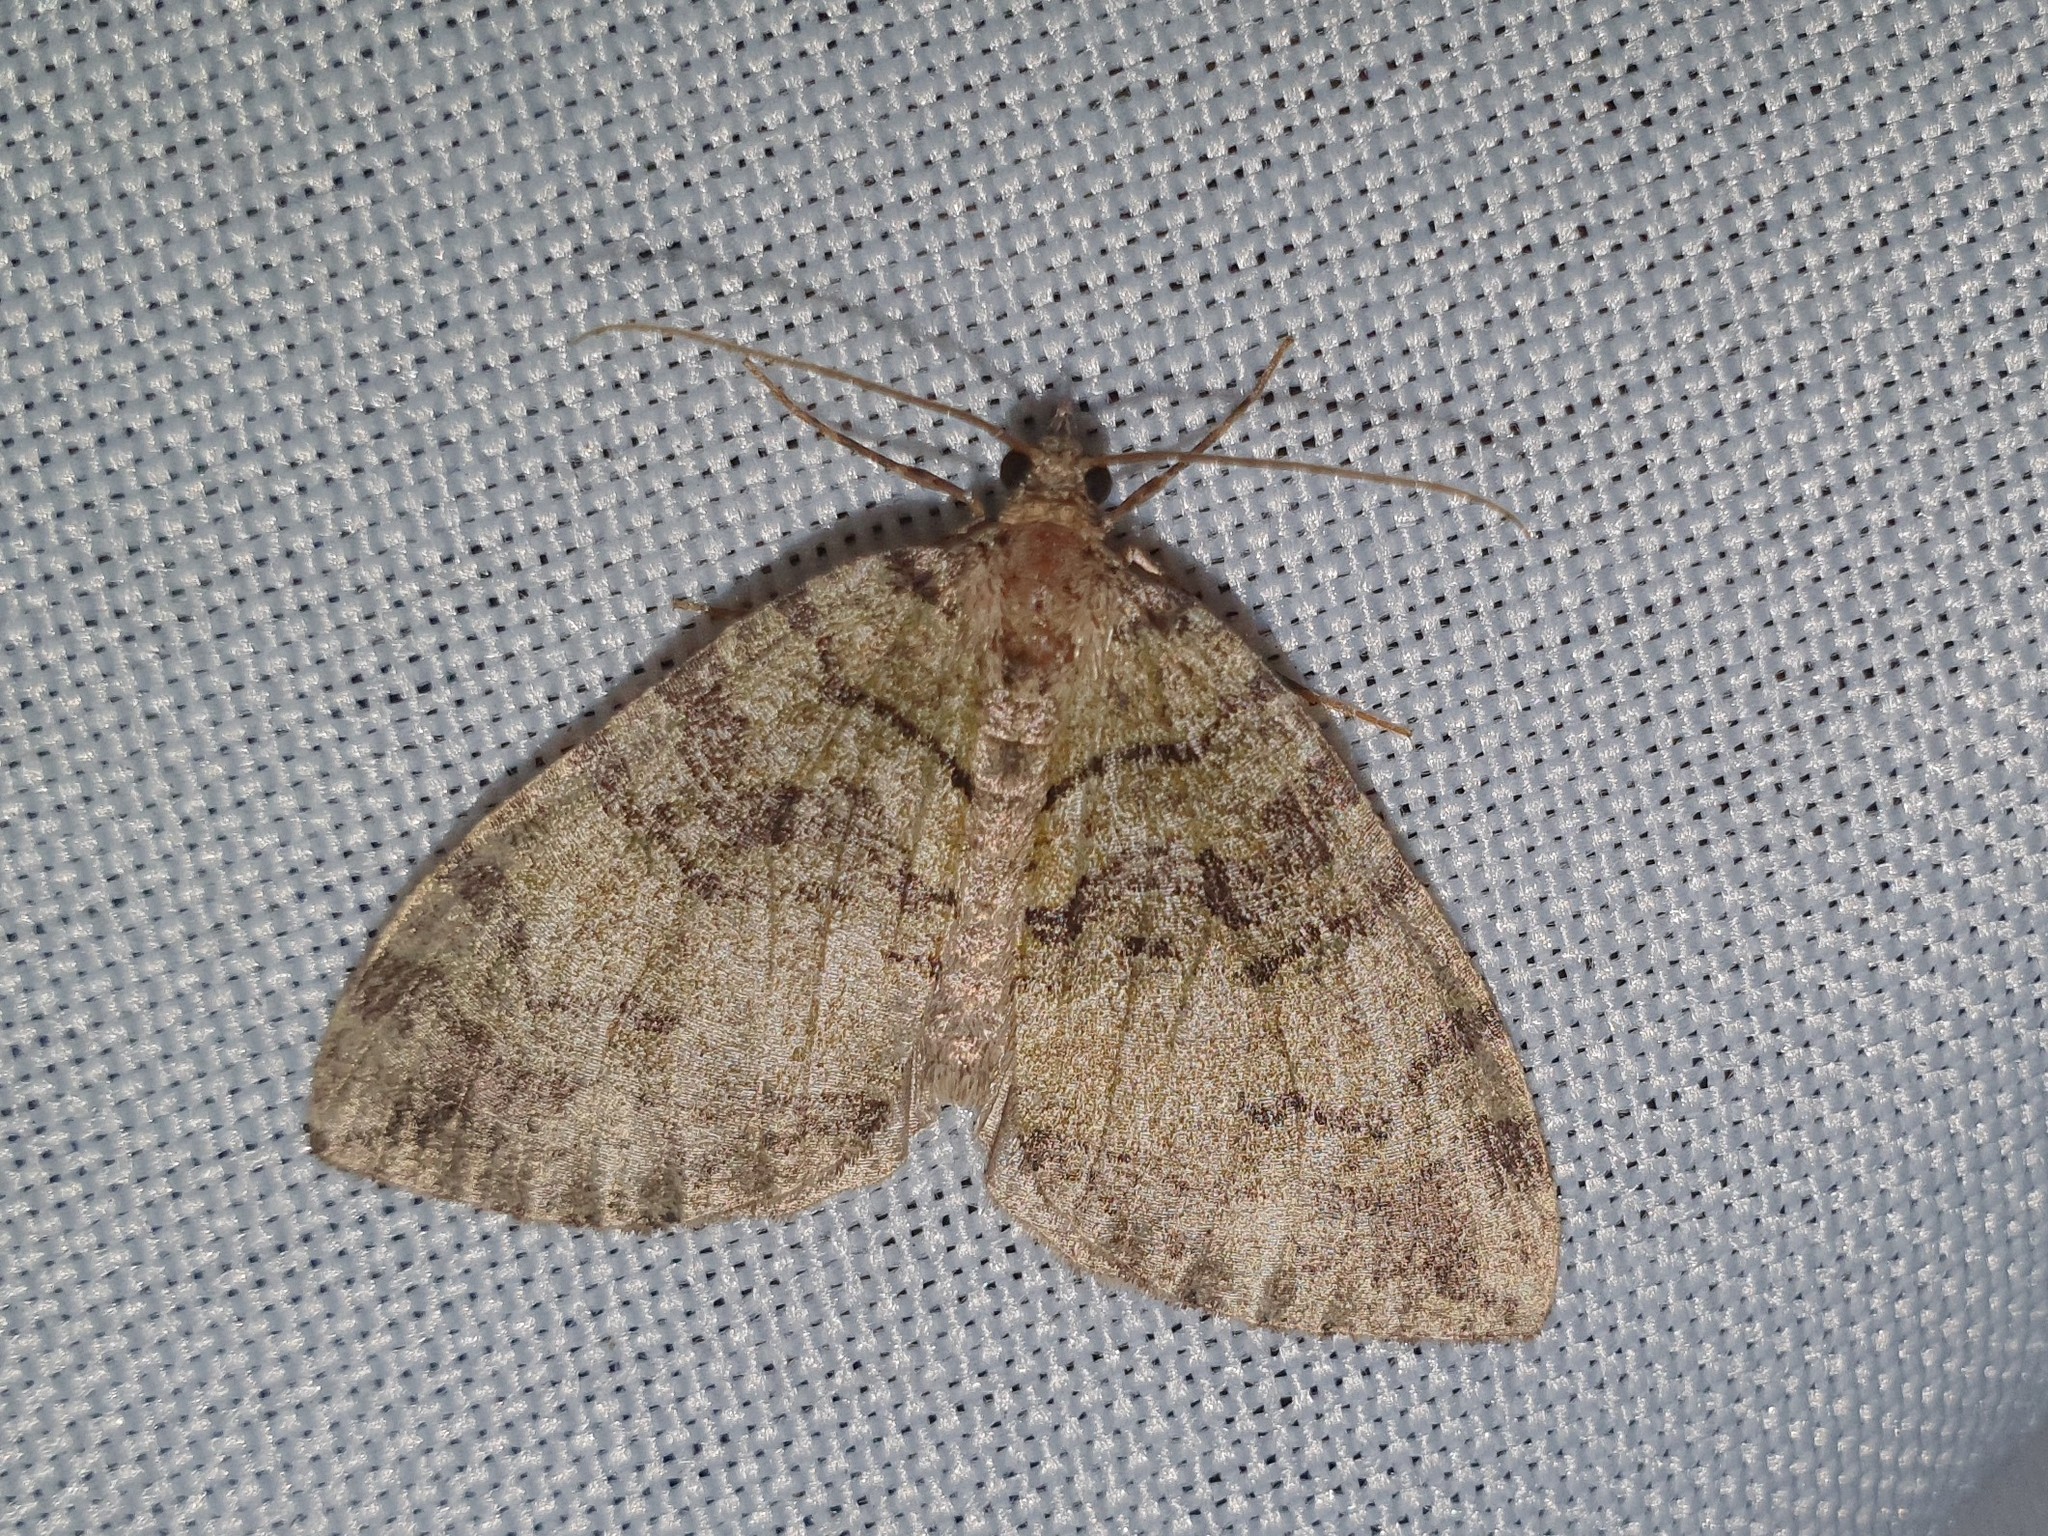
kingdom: Animalia
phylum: Arthropoda
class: Insecta
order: Lepidoptera
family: Geometridae
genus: Hydriomena
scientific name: Hydriomena furcata
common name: July highflyer
